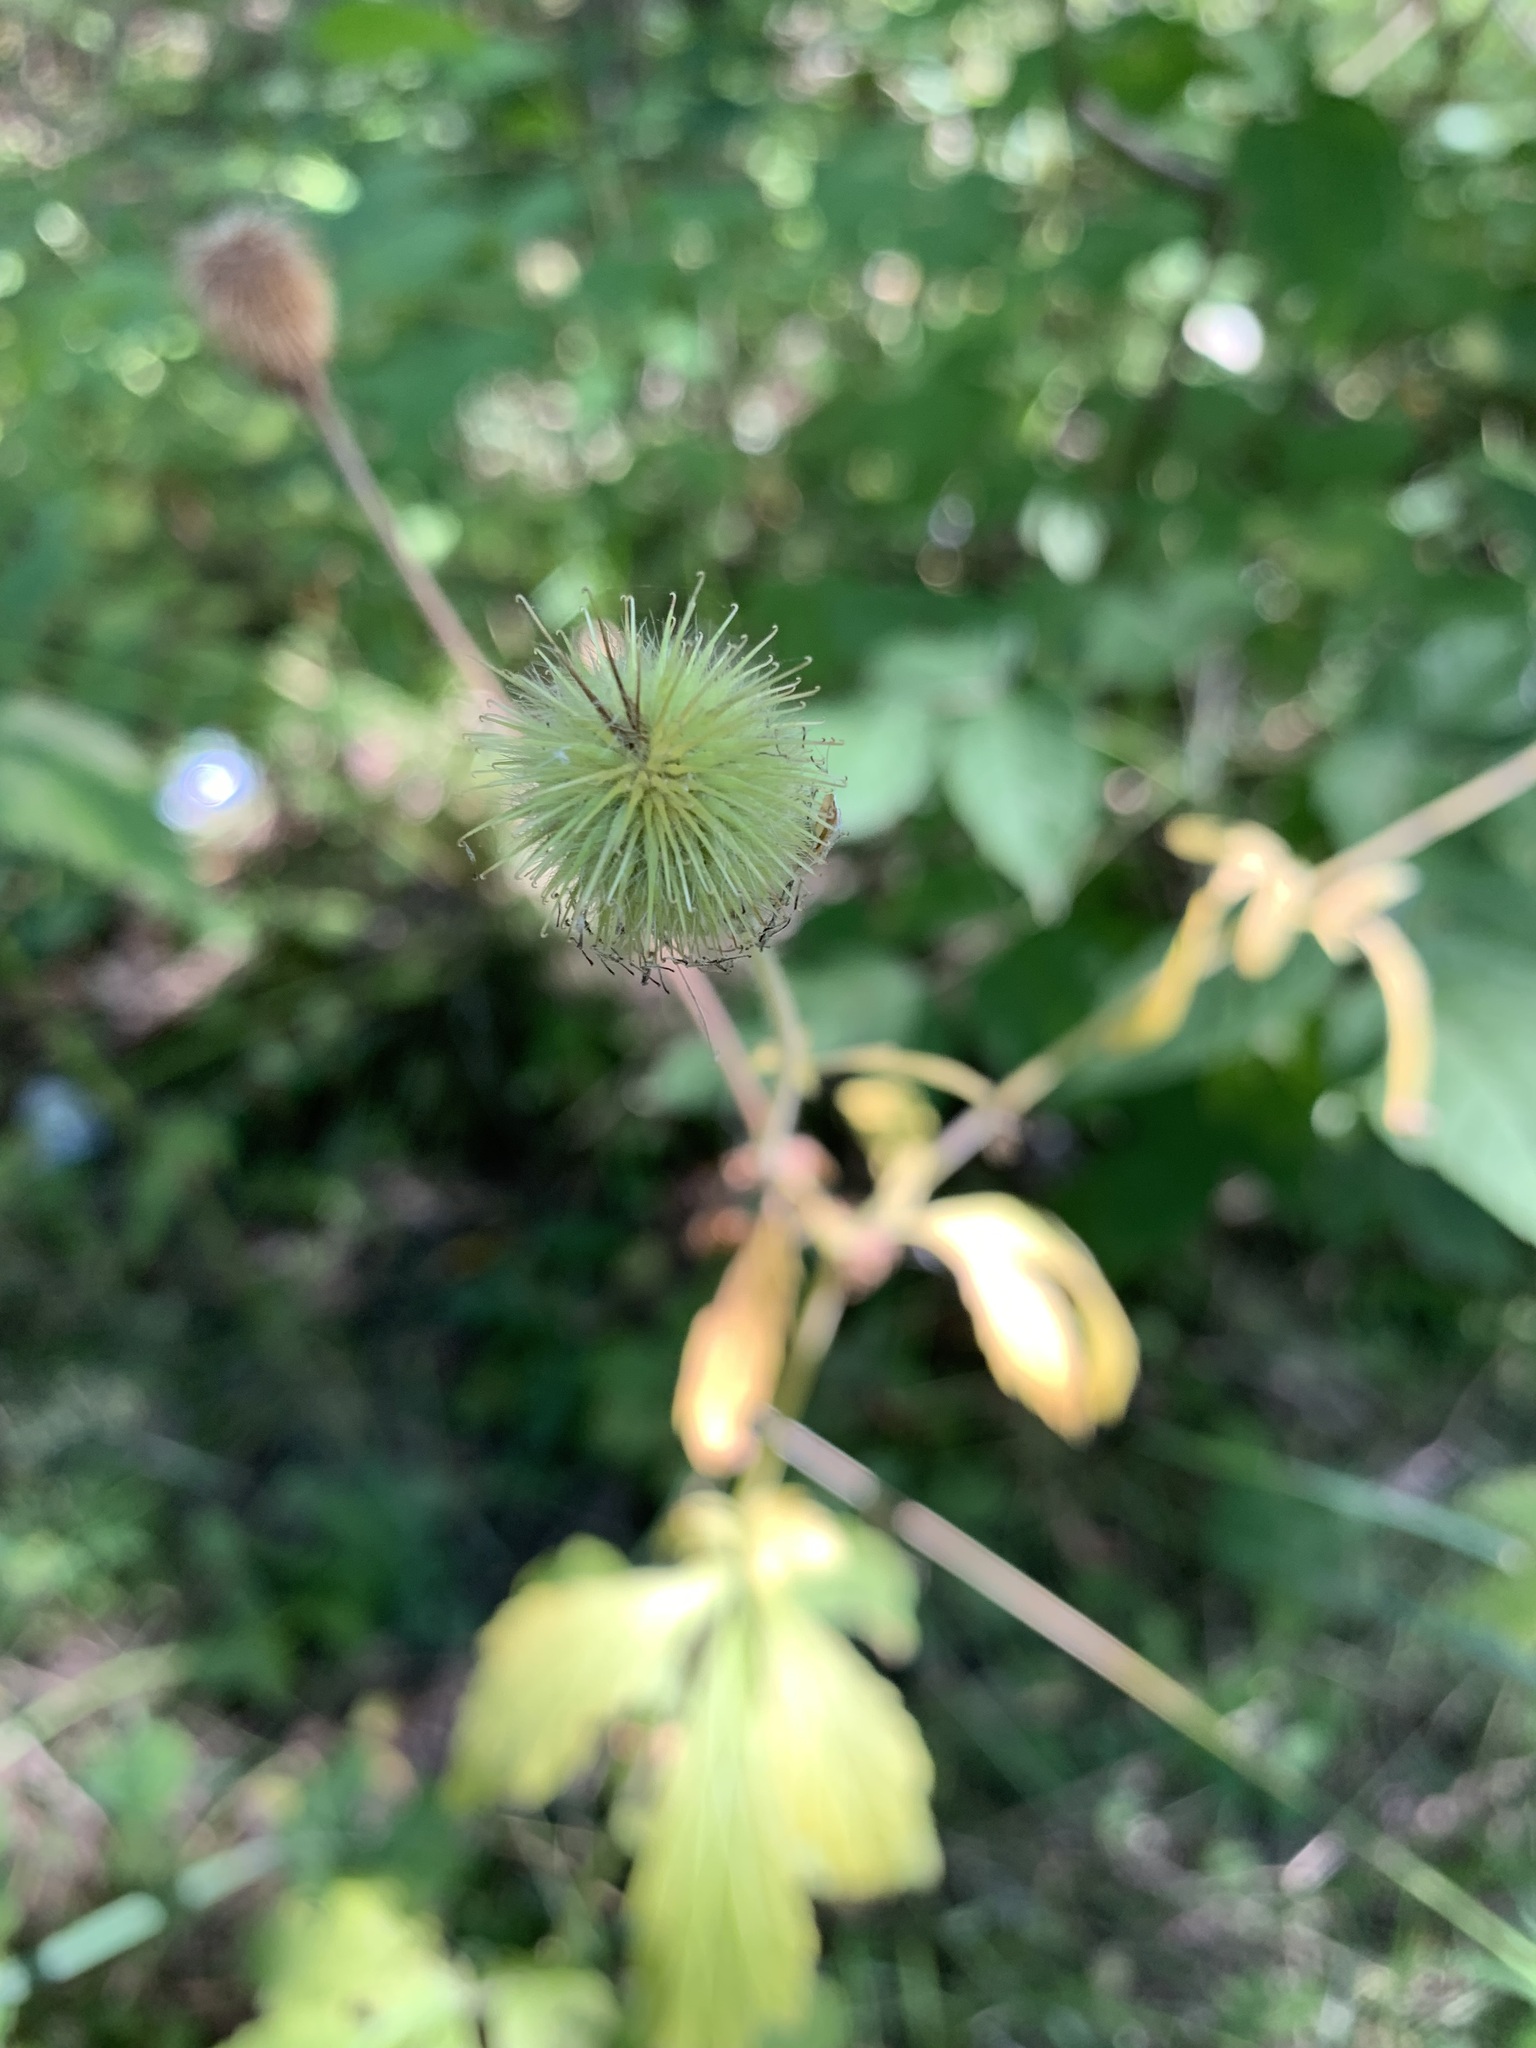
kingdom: Plantae
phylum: Tracheophyta
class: Magnoliopsida
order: Rosales
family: Rosaceae
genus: Geum
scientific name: Geum aleppicum
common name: Yellow avens
